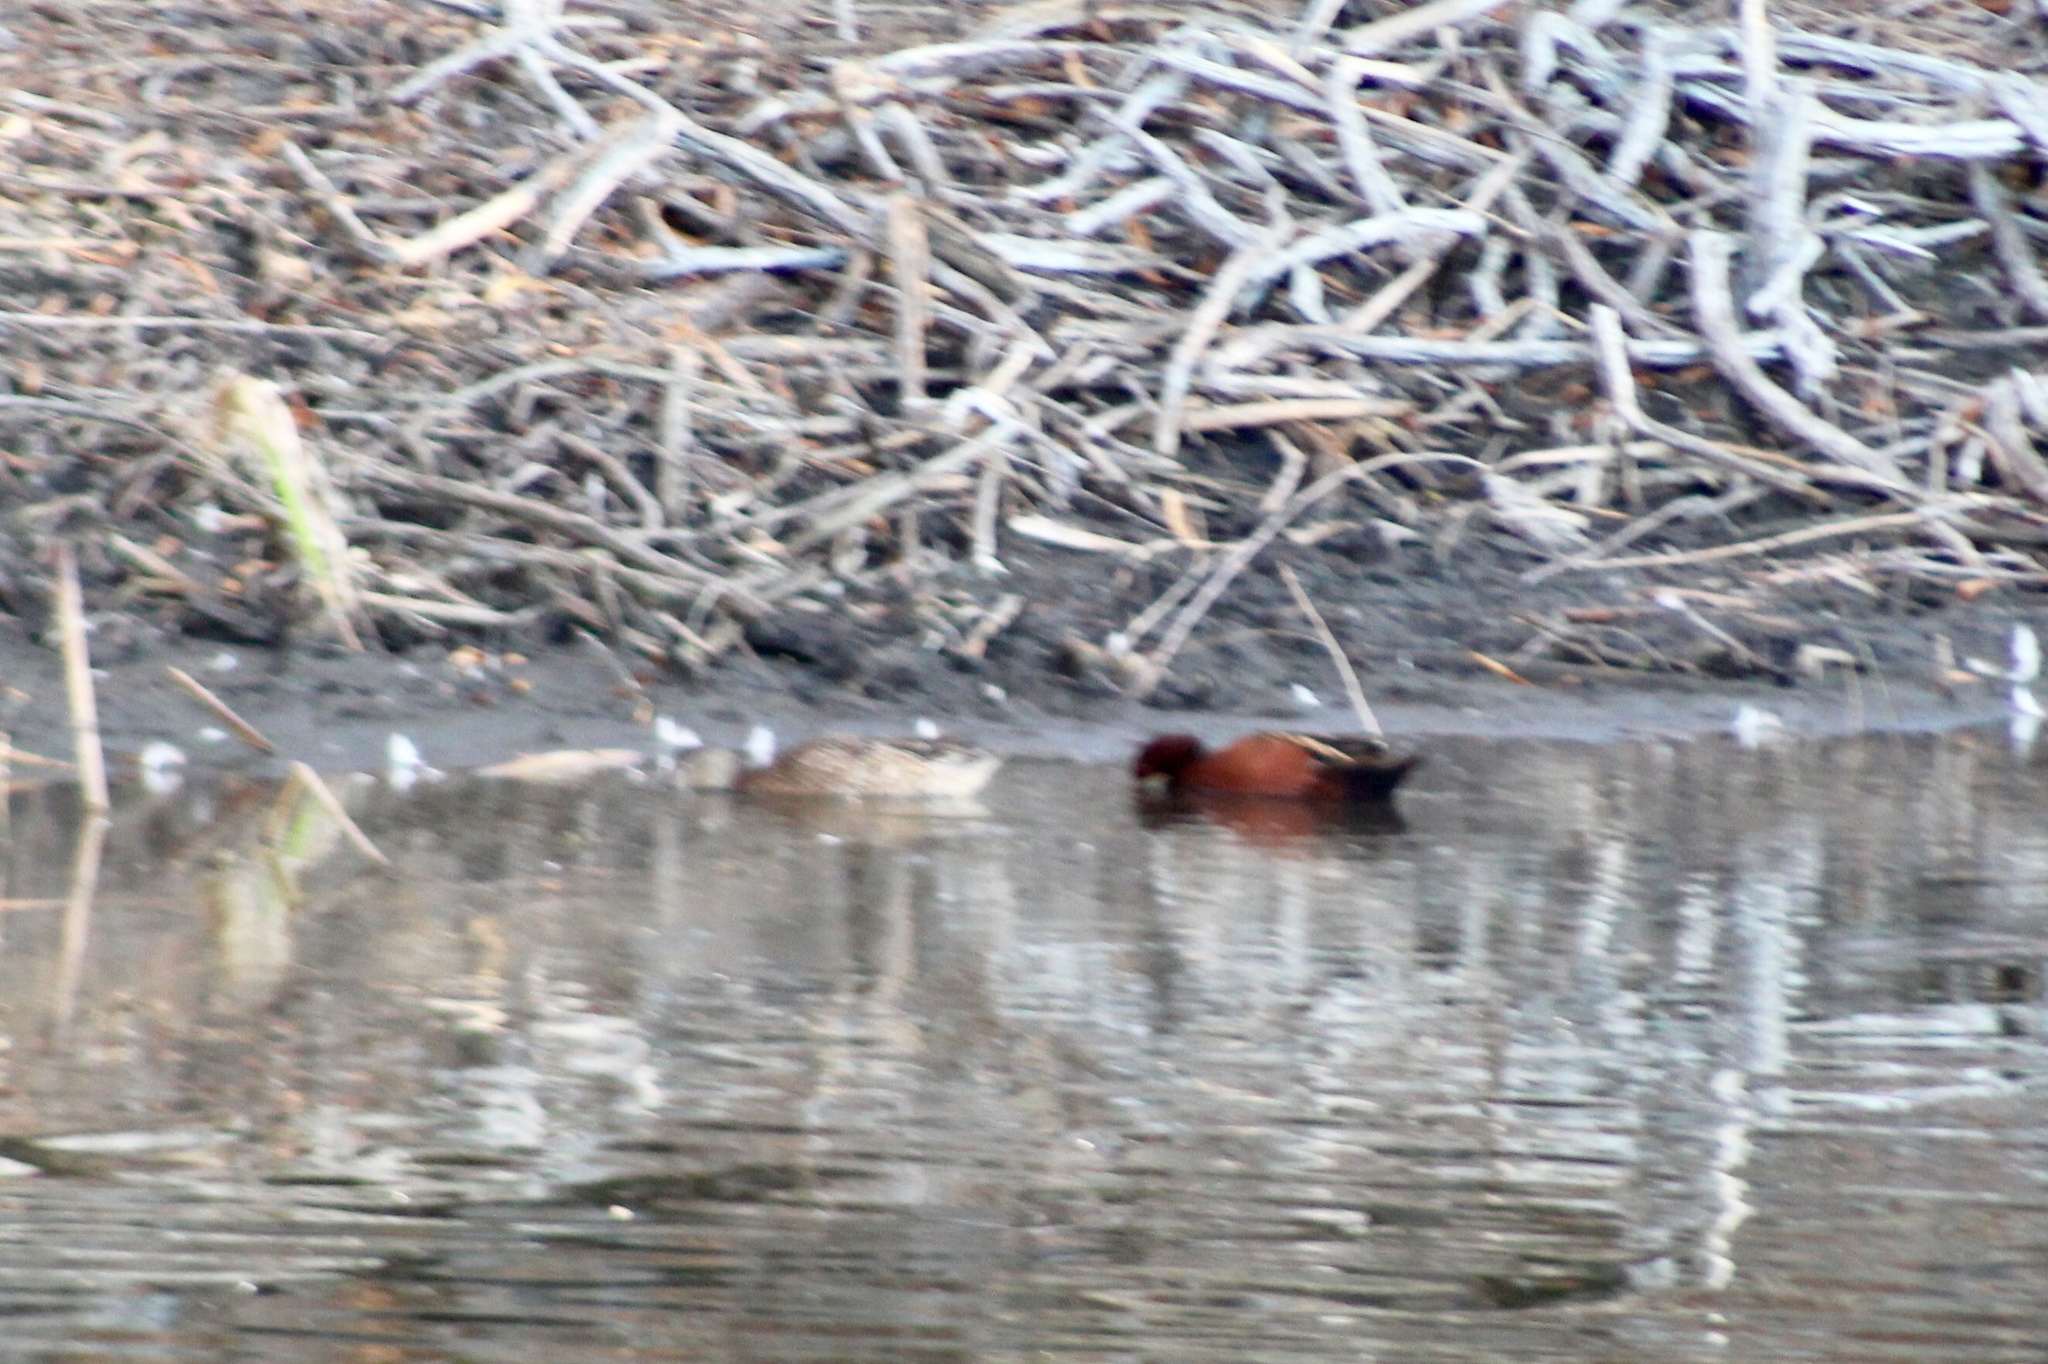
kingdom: Animalia
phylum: Chordata
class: Aves
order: Anseriformes
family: Anatidae
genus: Spatula
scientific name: Spatula cyanoptera
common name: Cinnamon teal
